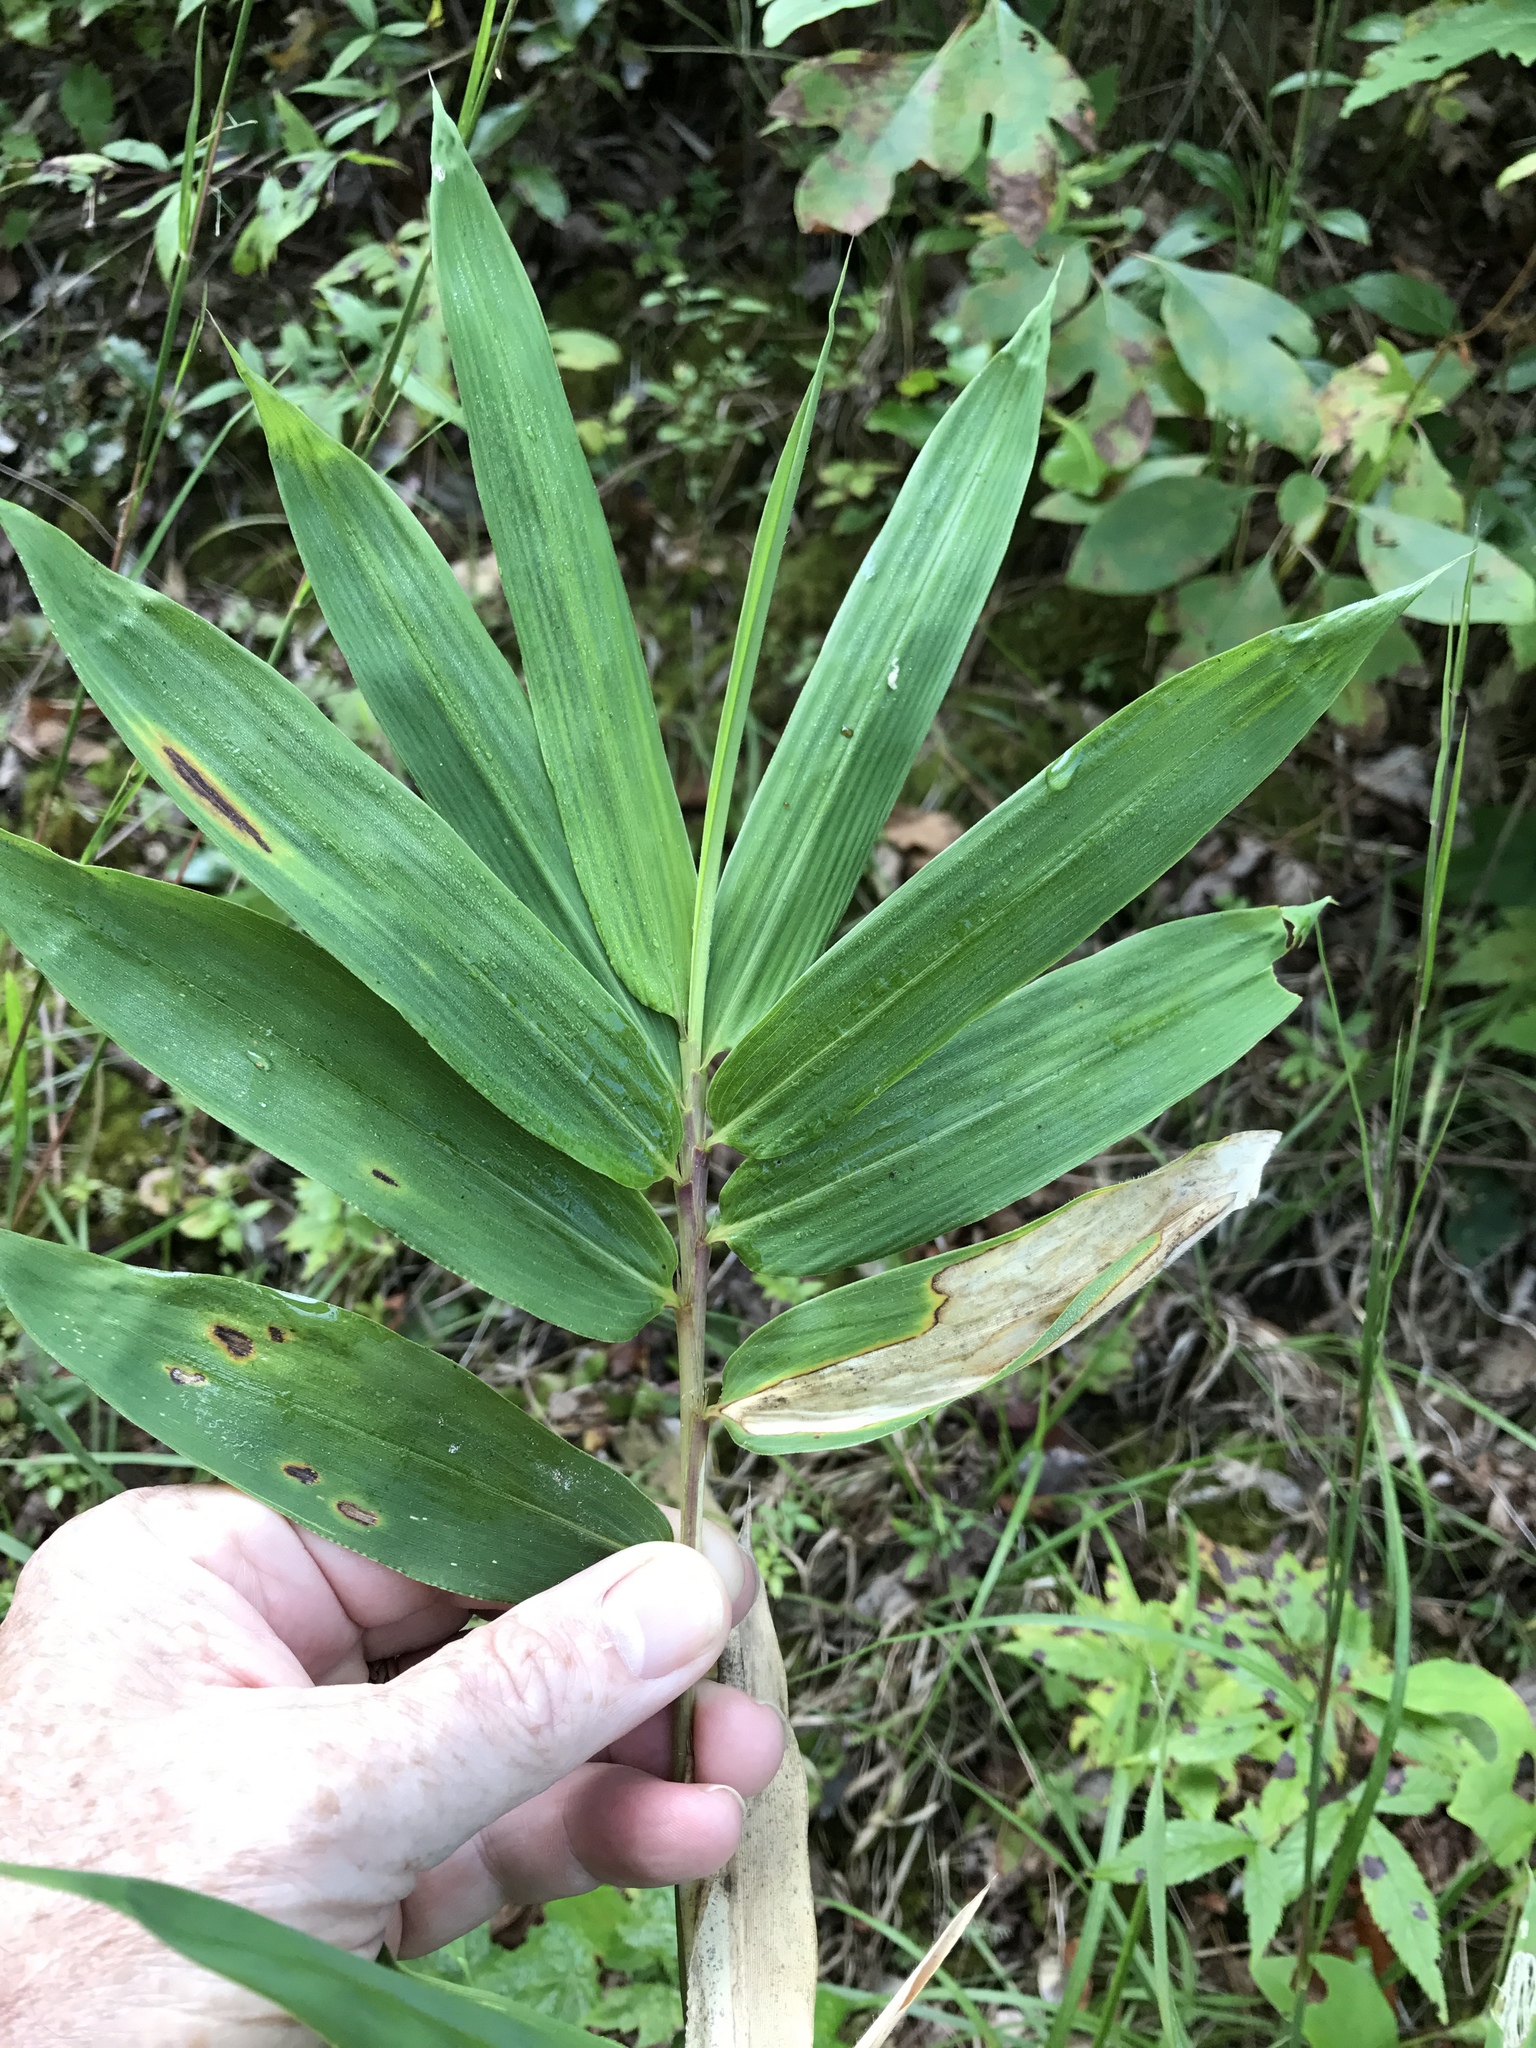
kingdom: Plantae
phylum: Tracheophyta
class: Liliopsida
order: Poales
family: Poaceae
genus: Arundinaria
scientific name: Arundinaria appalachiana
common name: Hill cane
